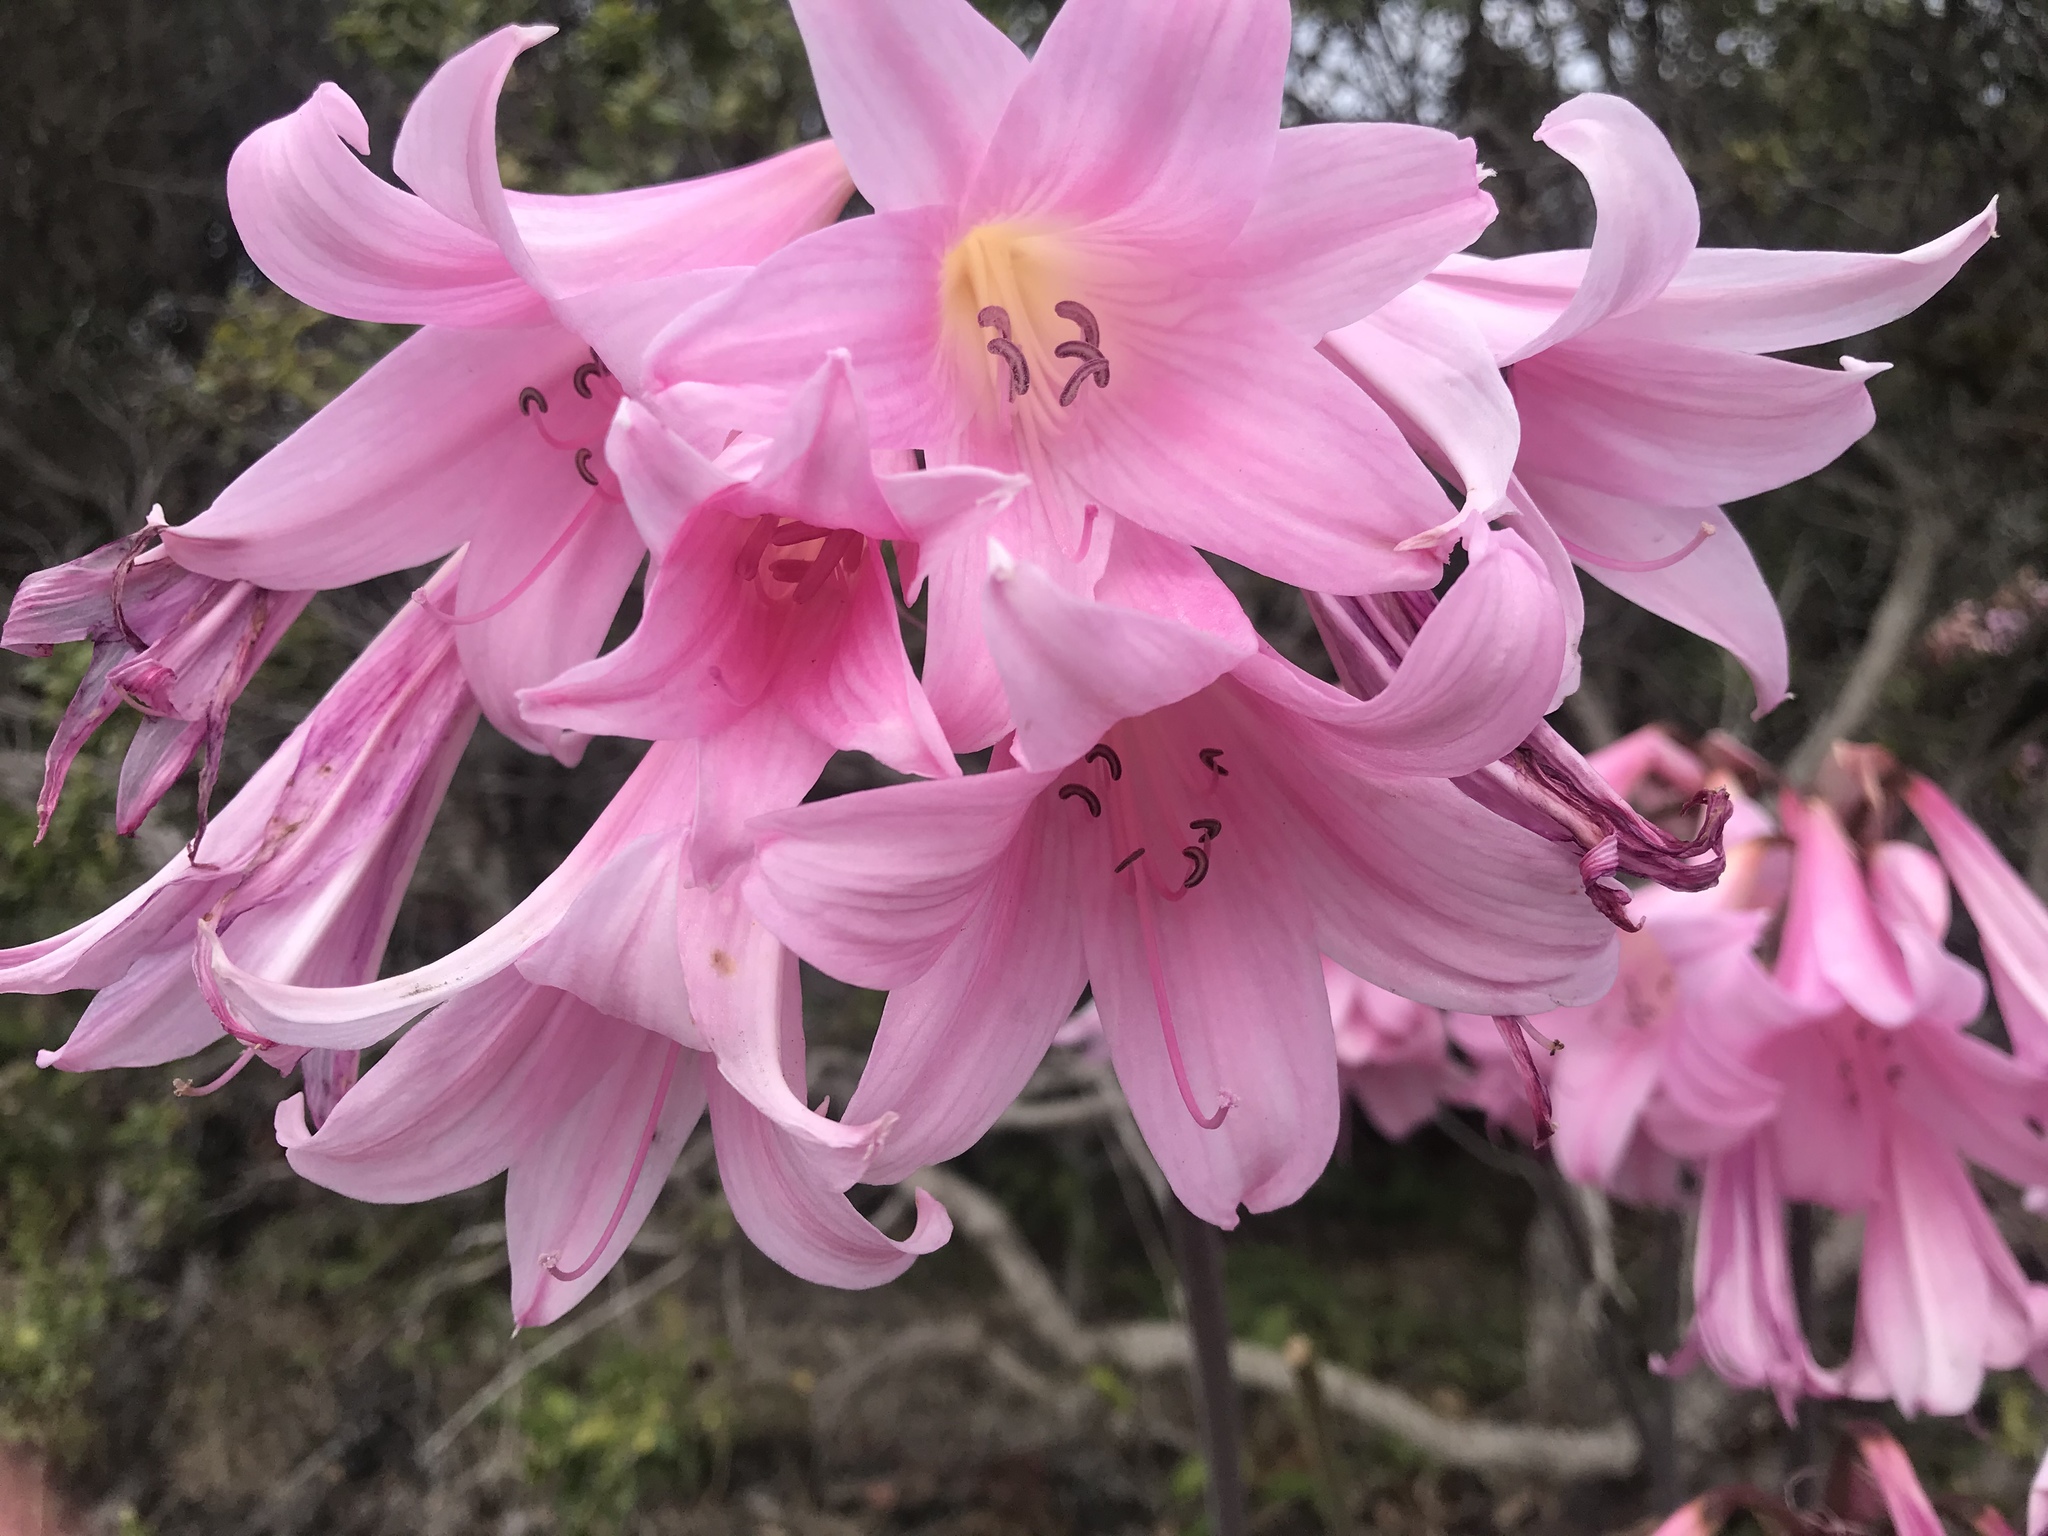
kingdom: Plantae
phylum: Tracheophyta
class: Liliopsida
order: Asparagales
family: Amaryllidaceae
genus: Amaryllis
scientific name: Amaryllis belladonna
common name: Jersey lily
